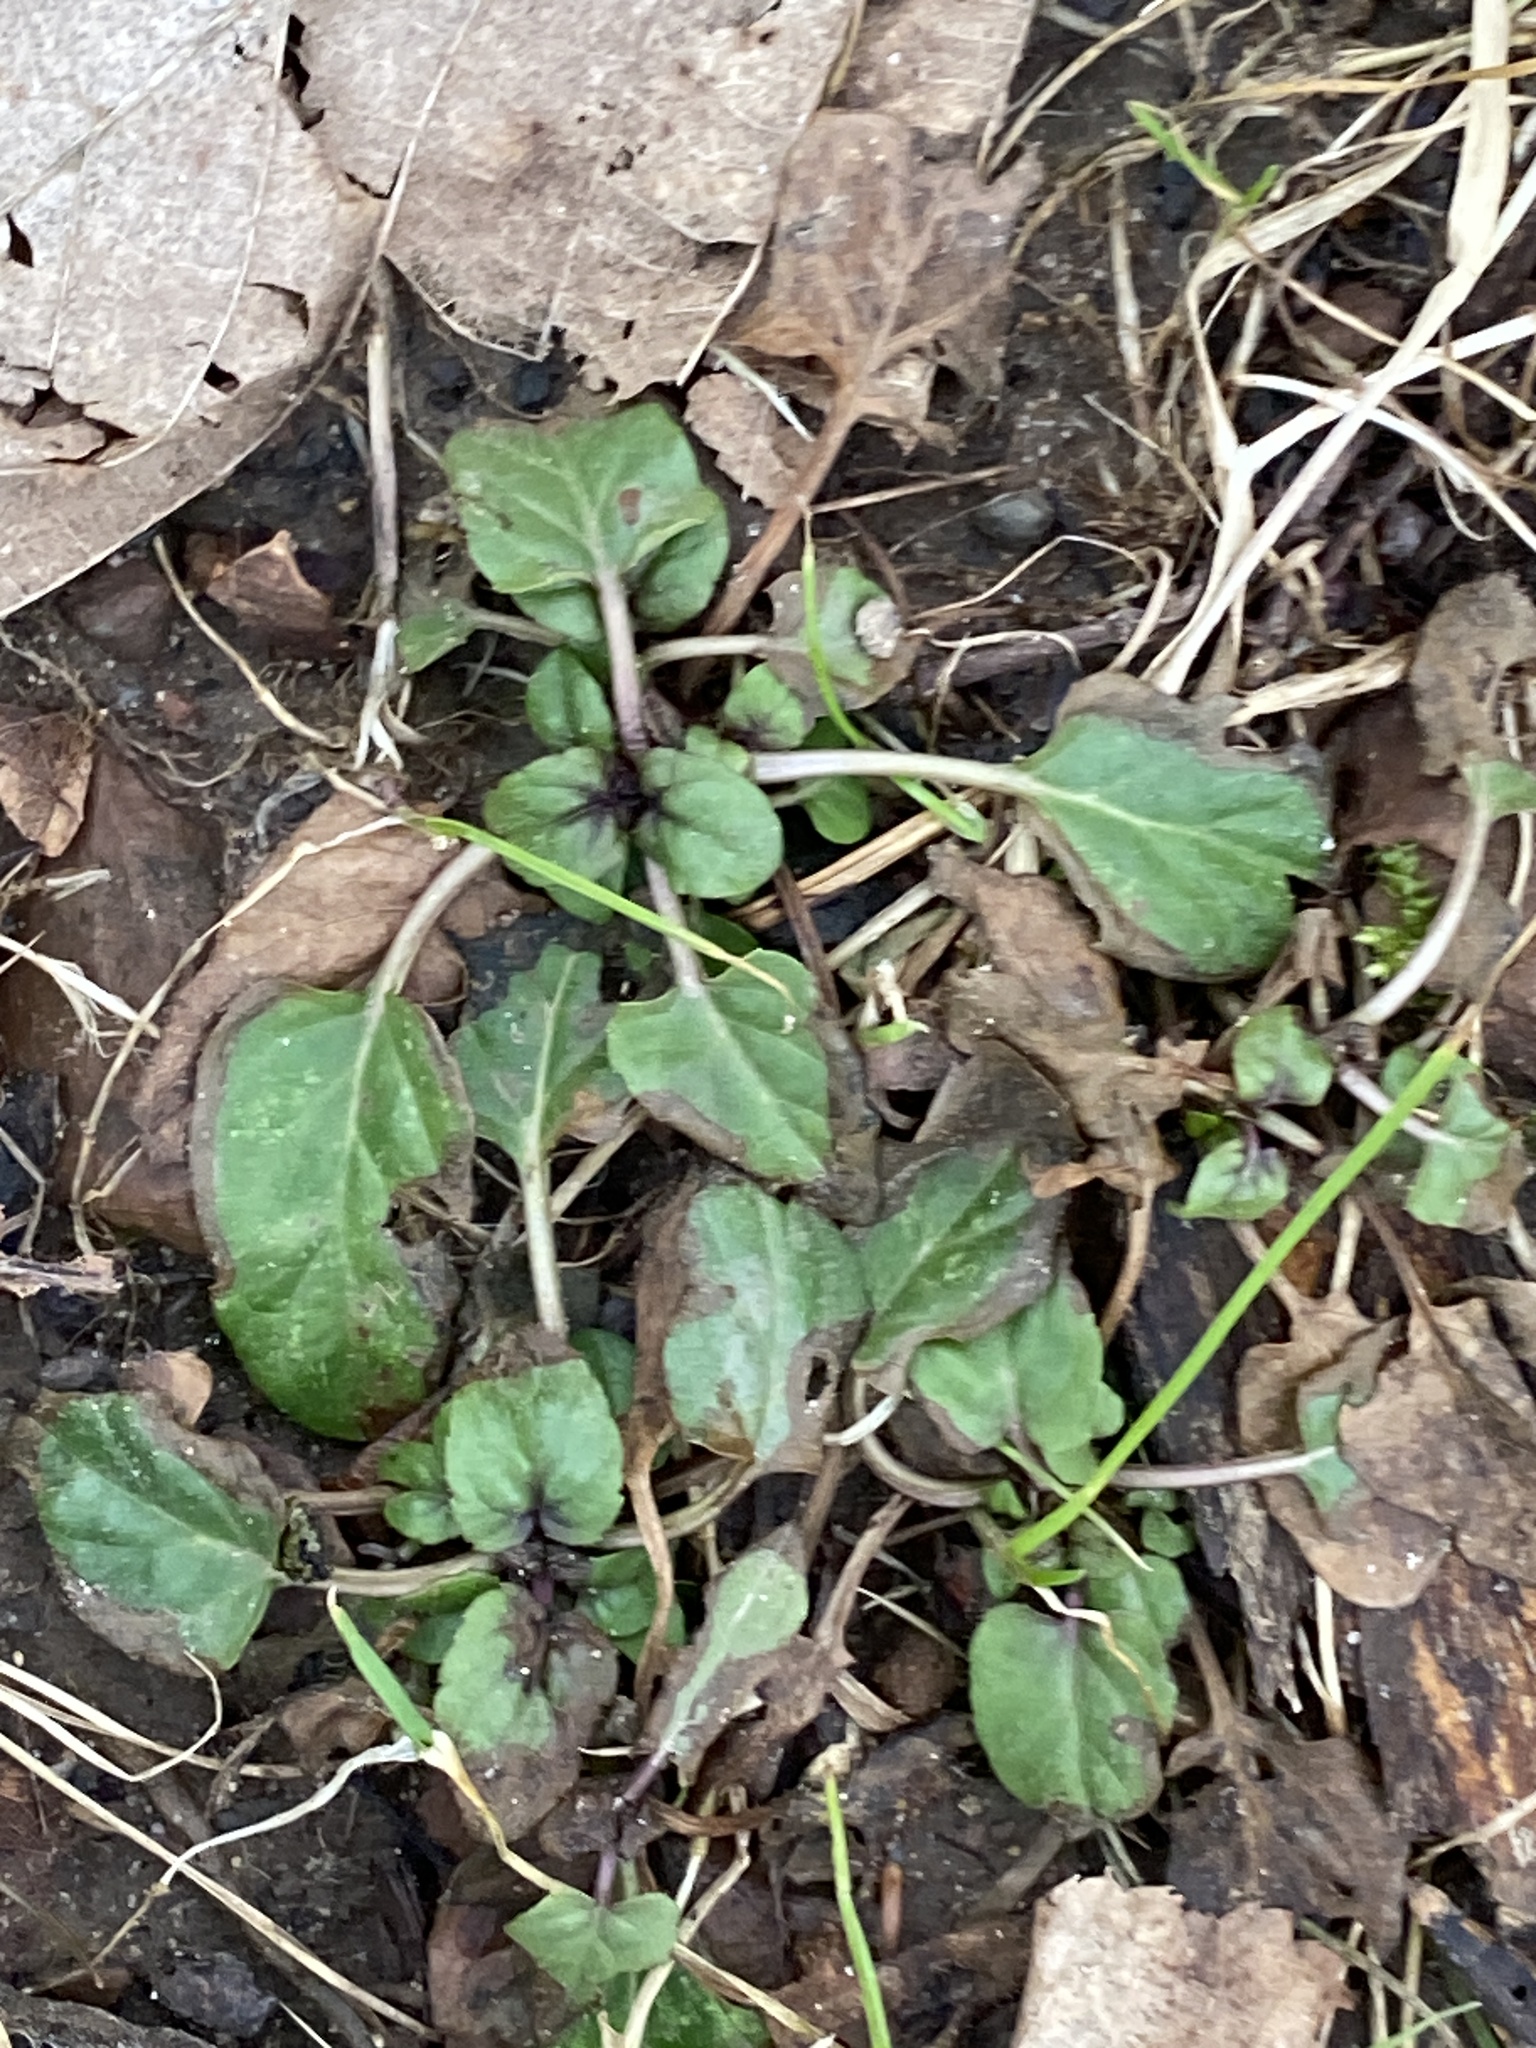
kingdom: Plantae
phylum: Tracheophyta
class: Magnoliopsida
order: Lamiales
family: Lamiaceae
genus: Prunella
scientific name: Prunella vulgaris
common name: Heal-all
